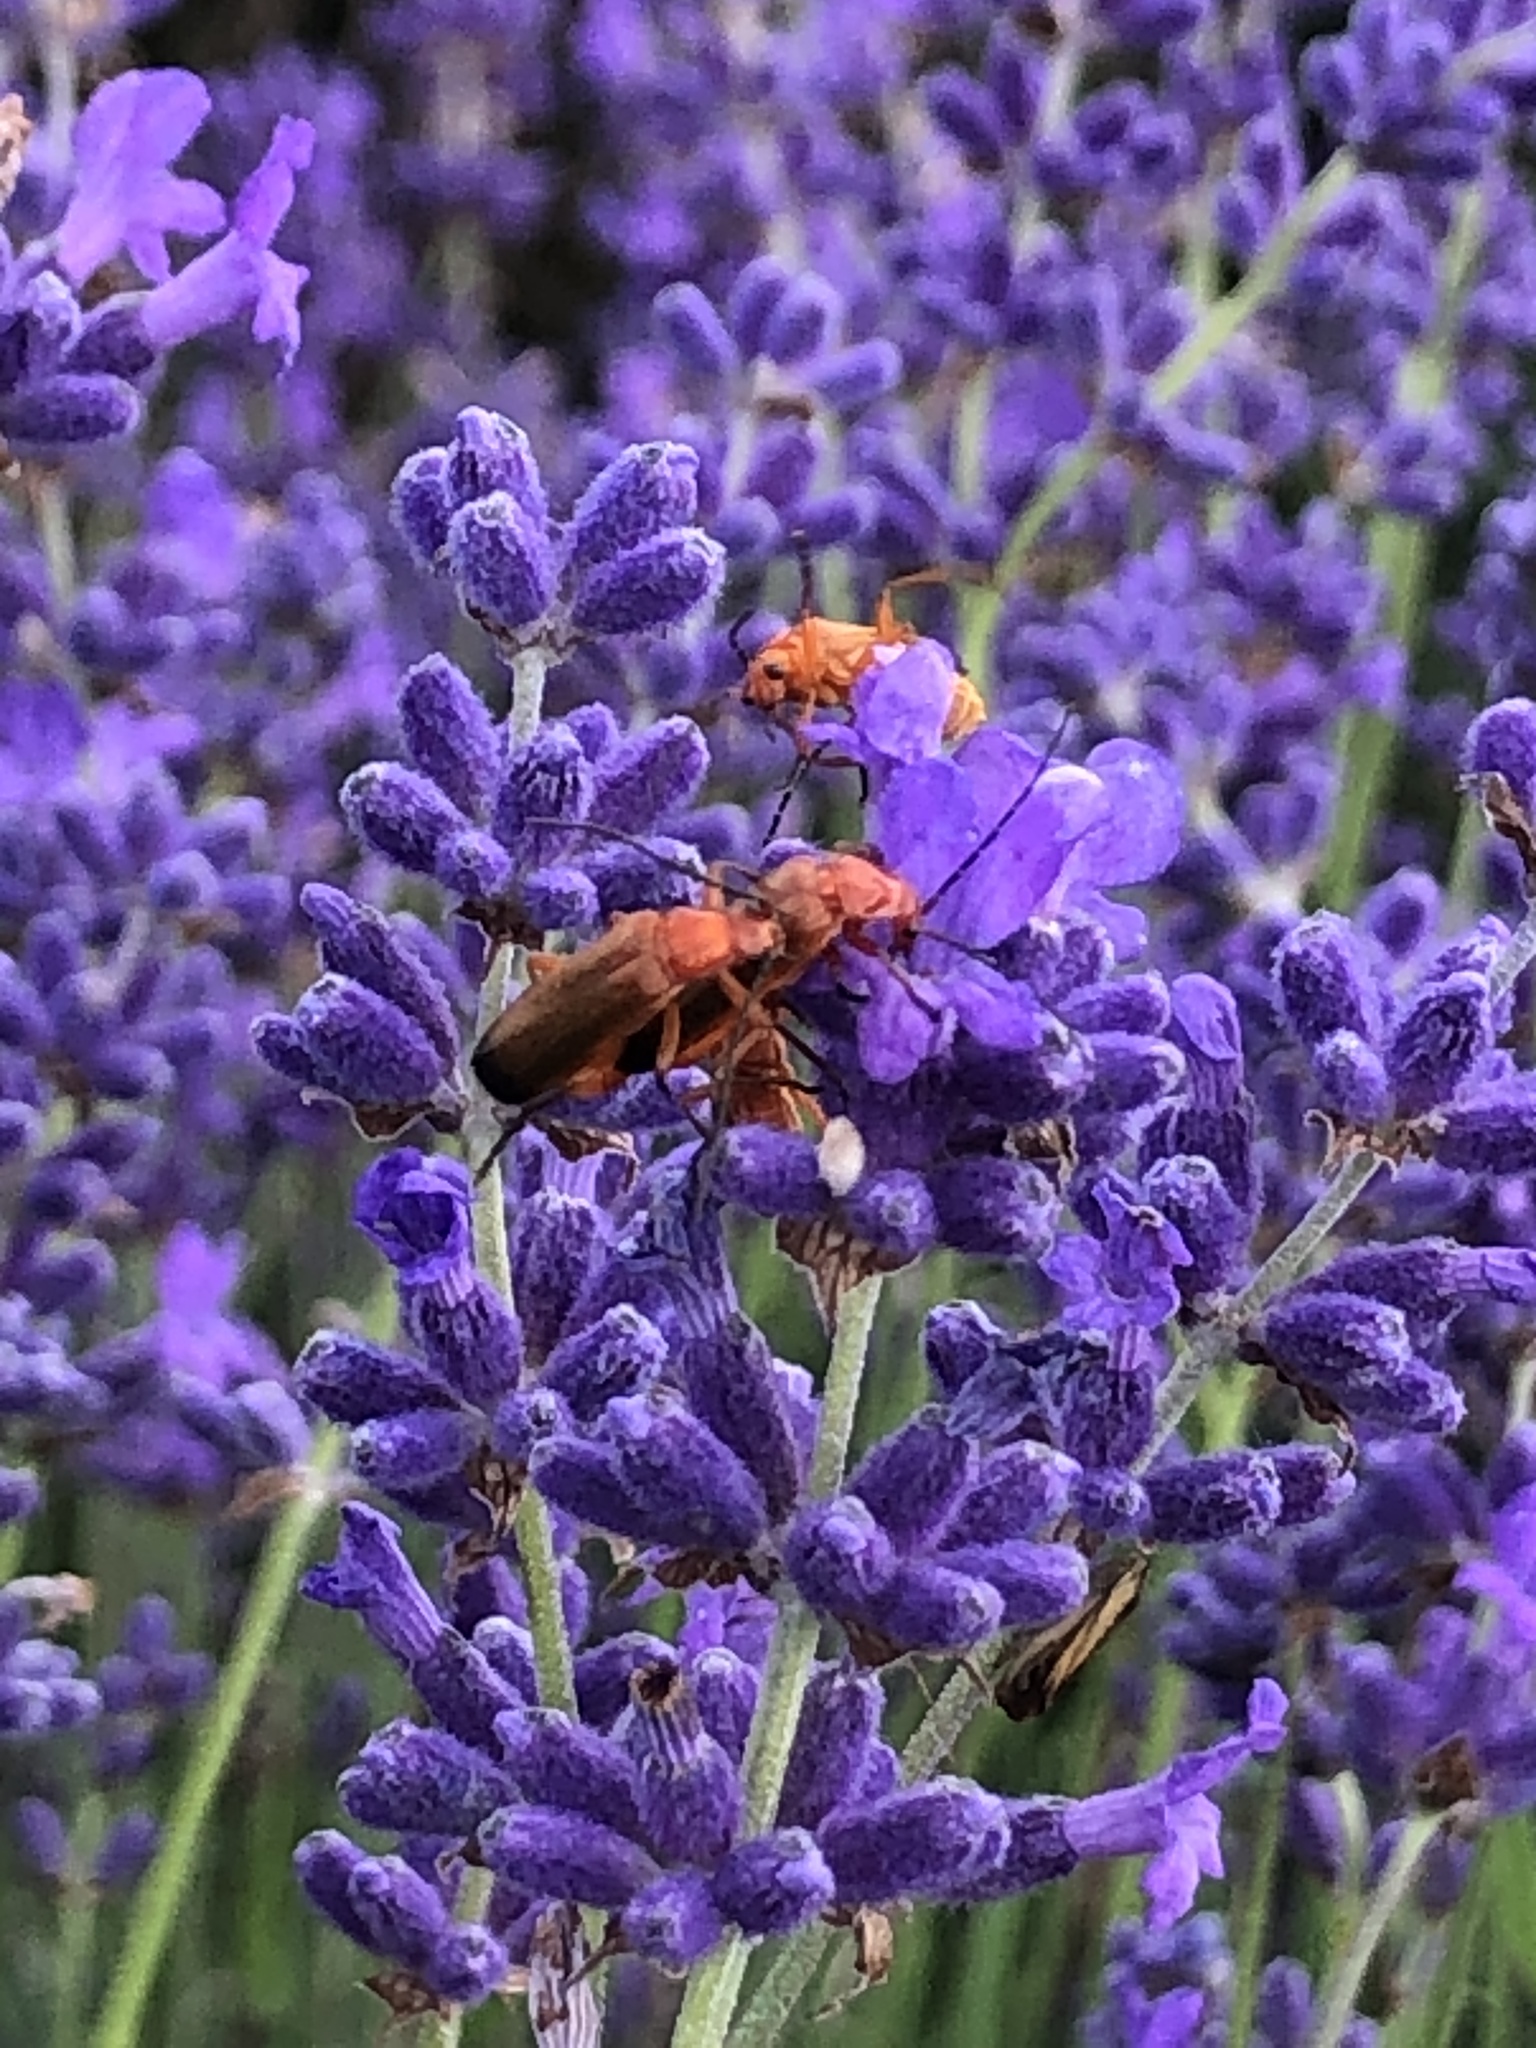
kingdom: Animalia
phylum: Arthropoda
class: Insecta
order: Coleoptera
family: Cantharidae
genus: Rhagonycha
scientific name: Rhagonycha fulva
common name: Common red soldier beetle
